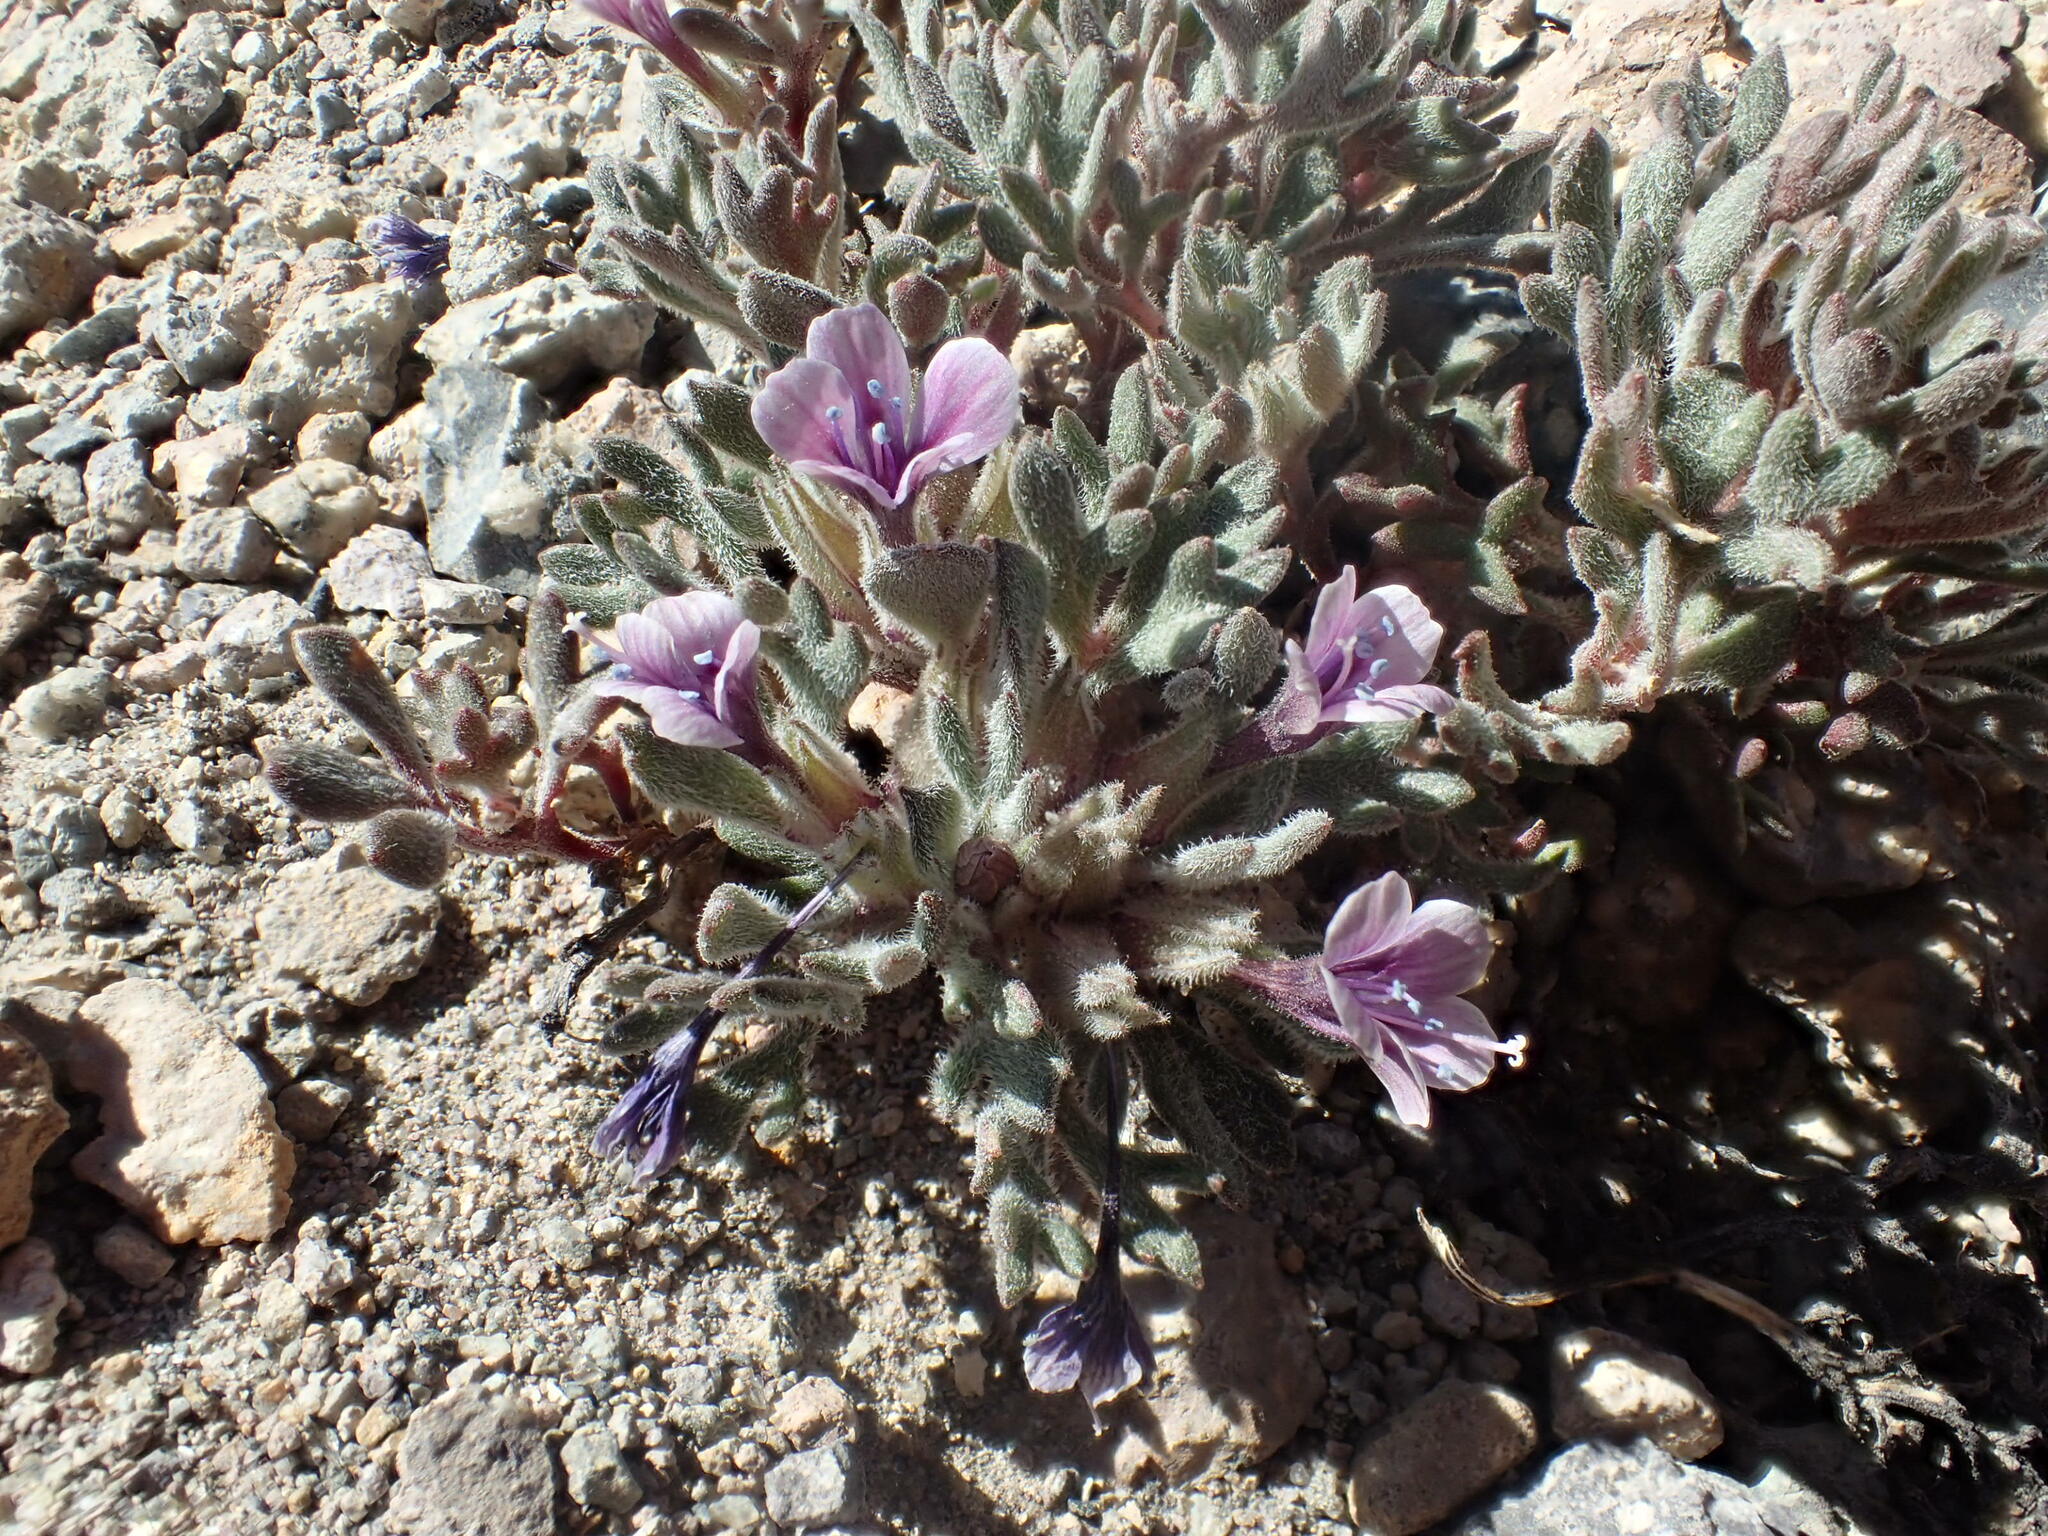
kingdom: Plantae
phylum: Tracheophyta
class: Magnoliopsida
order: Ericales
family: Polemoniaceae
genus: Collomia
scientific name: Collomia larsenii
